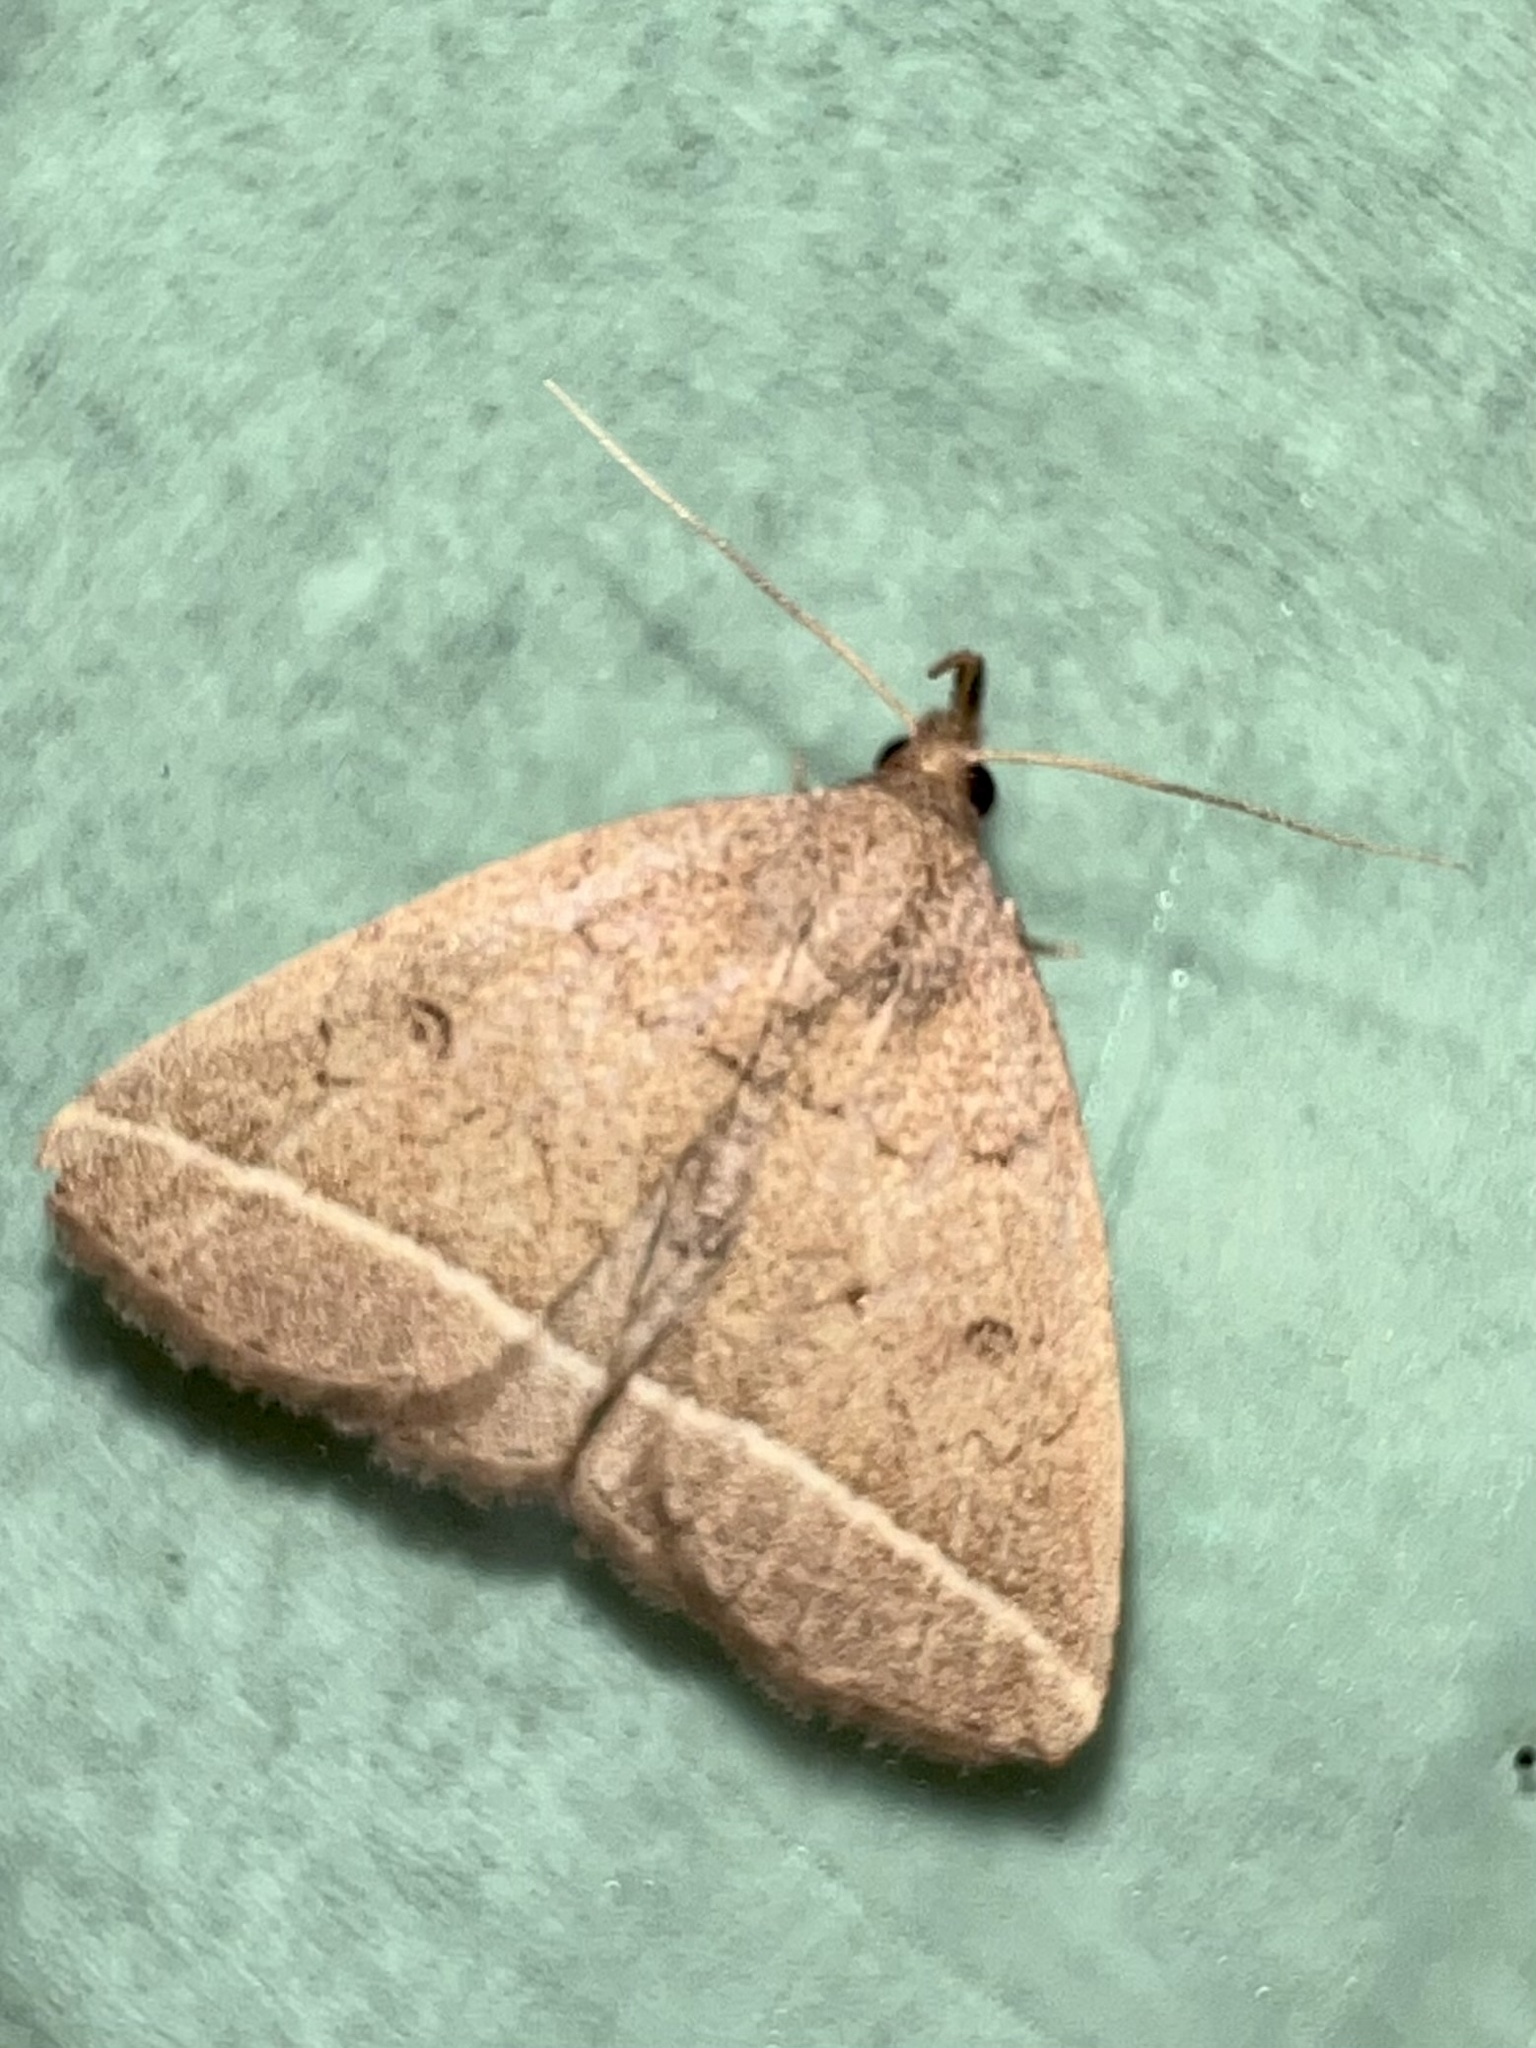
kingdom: Animalia
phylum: Arthropoda
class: Insecta
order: Lepidoptera
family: Erebidae
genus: Zanclognatha
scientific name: Zanclognatha marcidilinea
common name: Yellowish fan-foot
